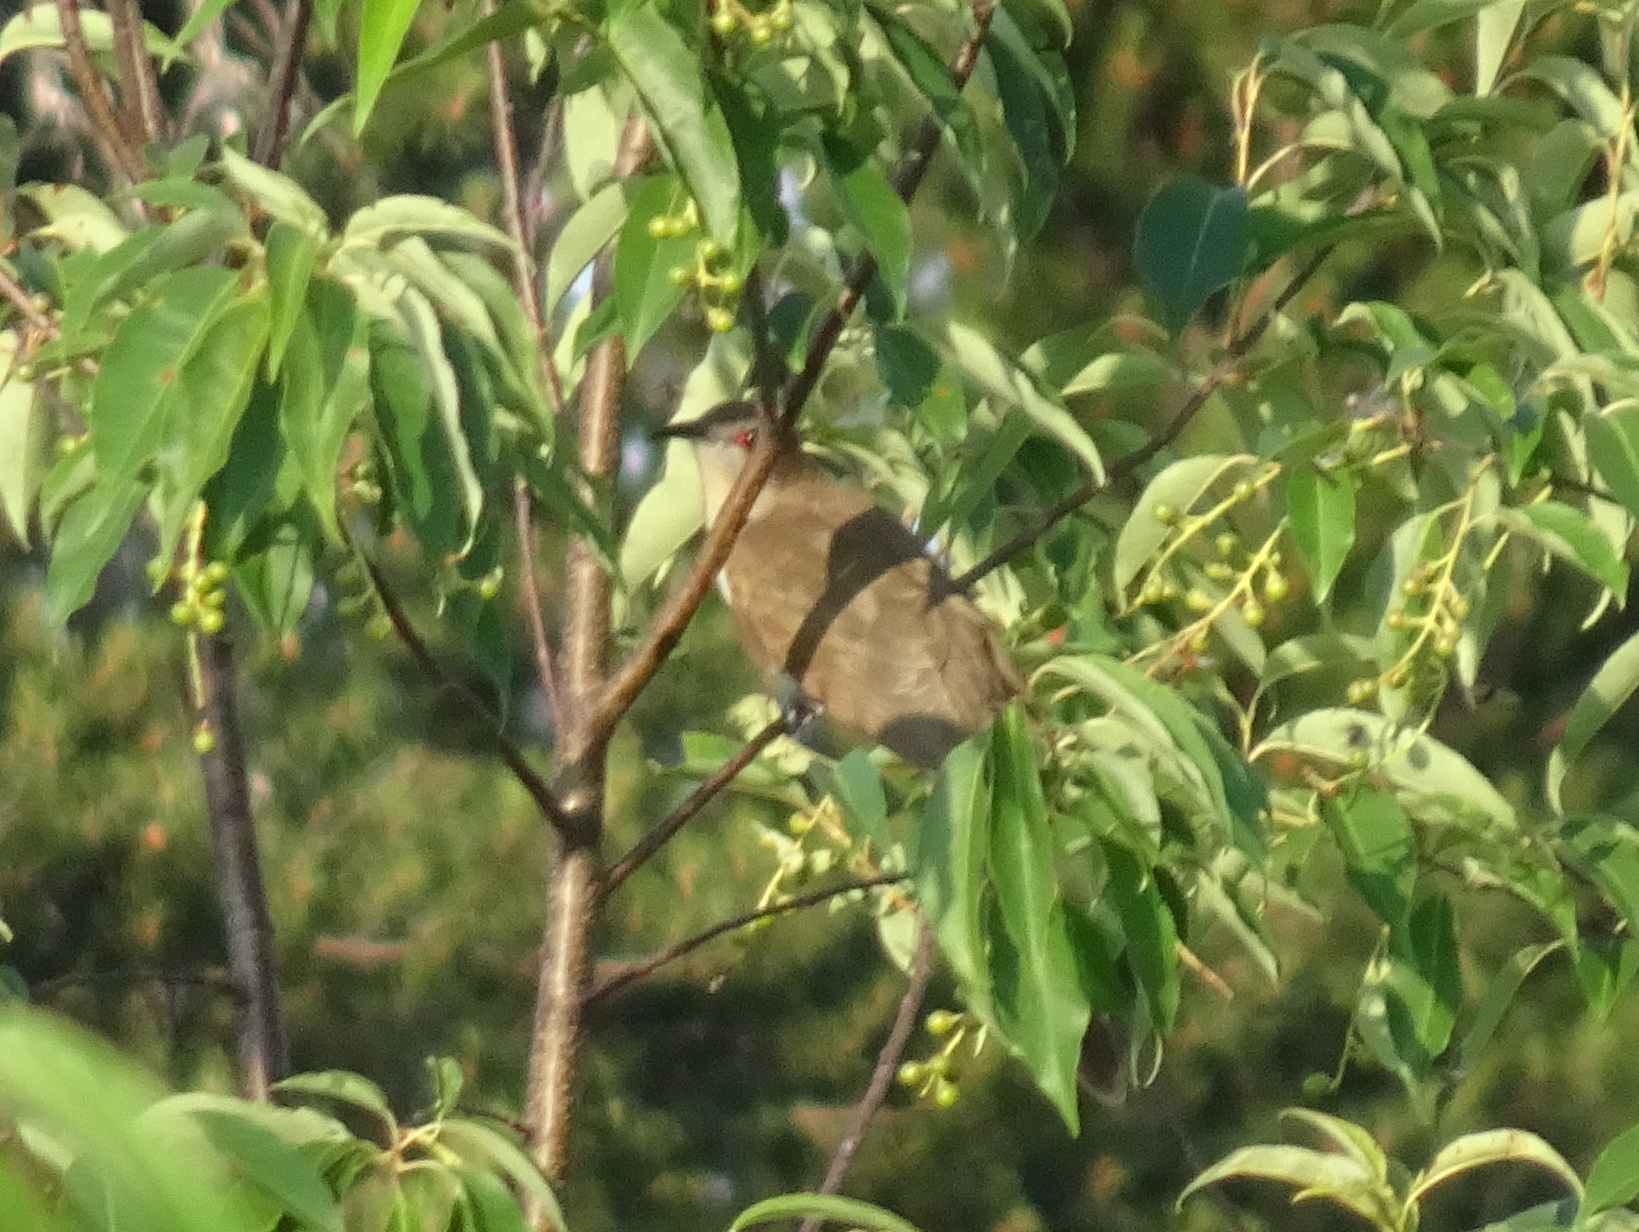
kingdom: Animalia
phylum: Chordata
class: Aves
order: Cuculiformes
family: Cuculidae
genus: Coccyzus
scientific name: Coccyzus erythropthalmus
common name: Black-billed cuckoo
